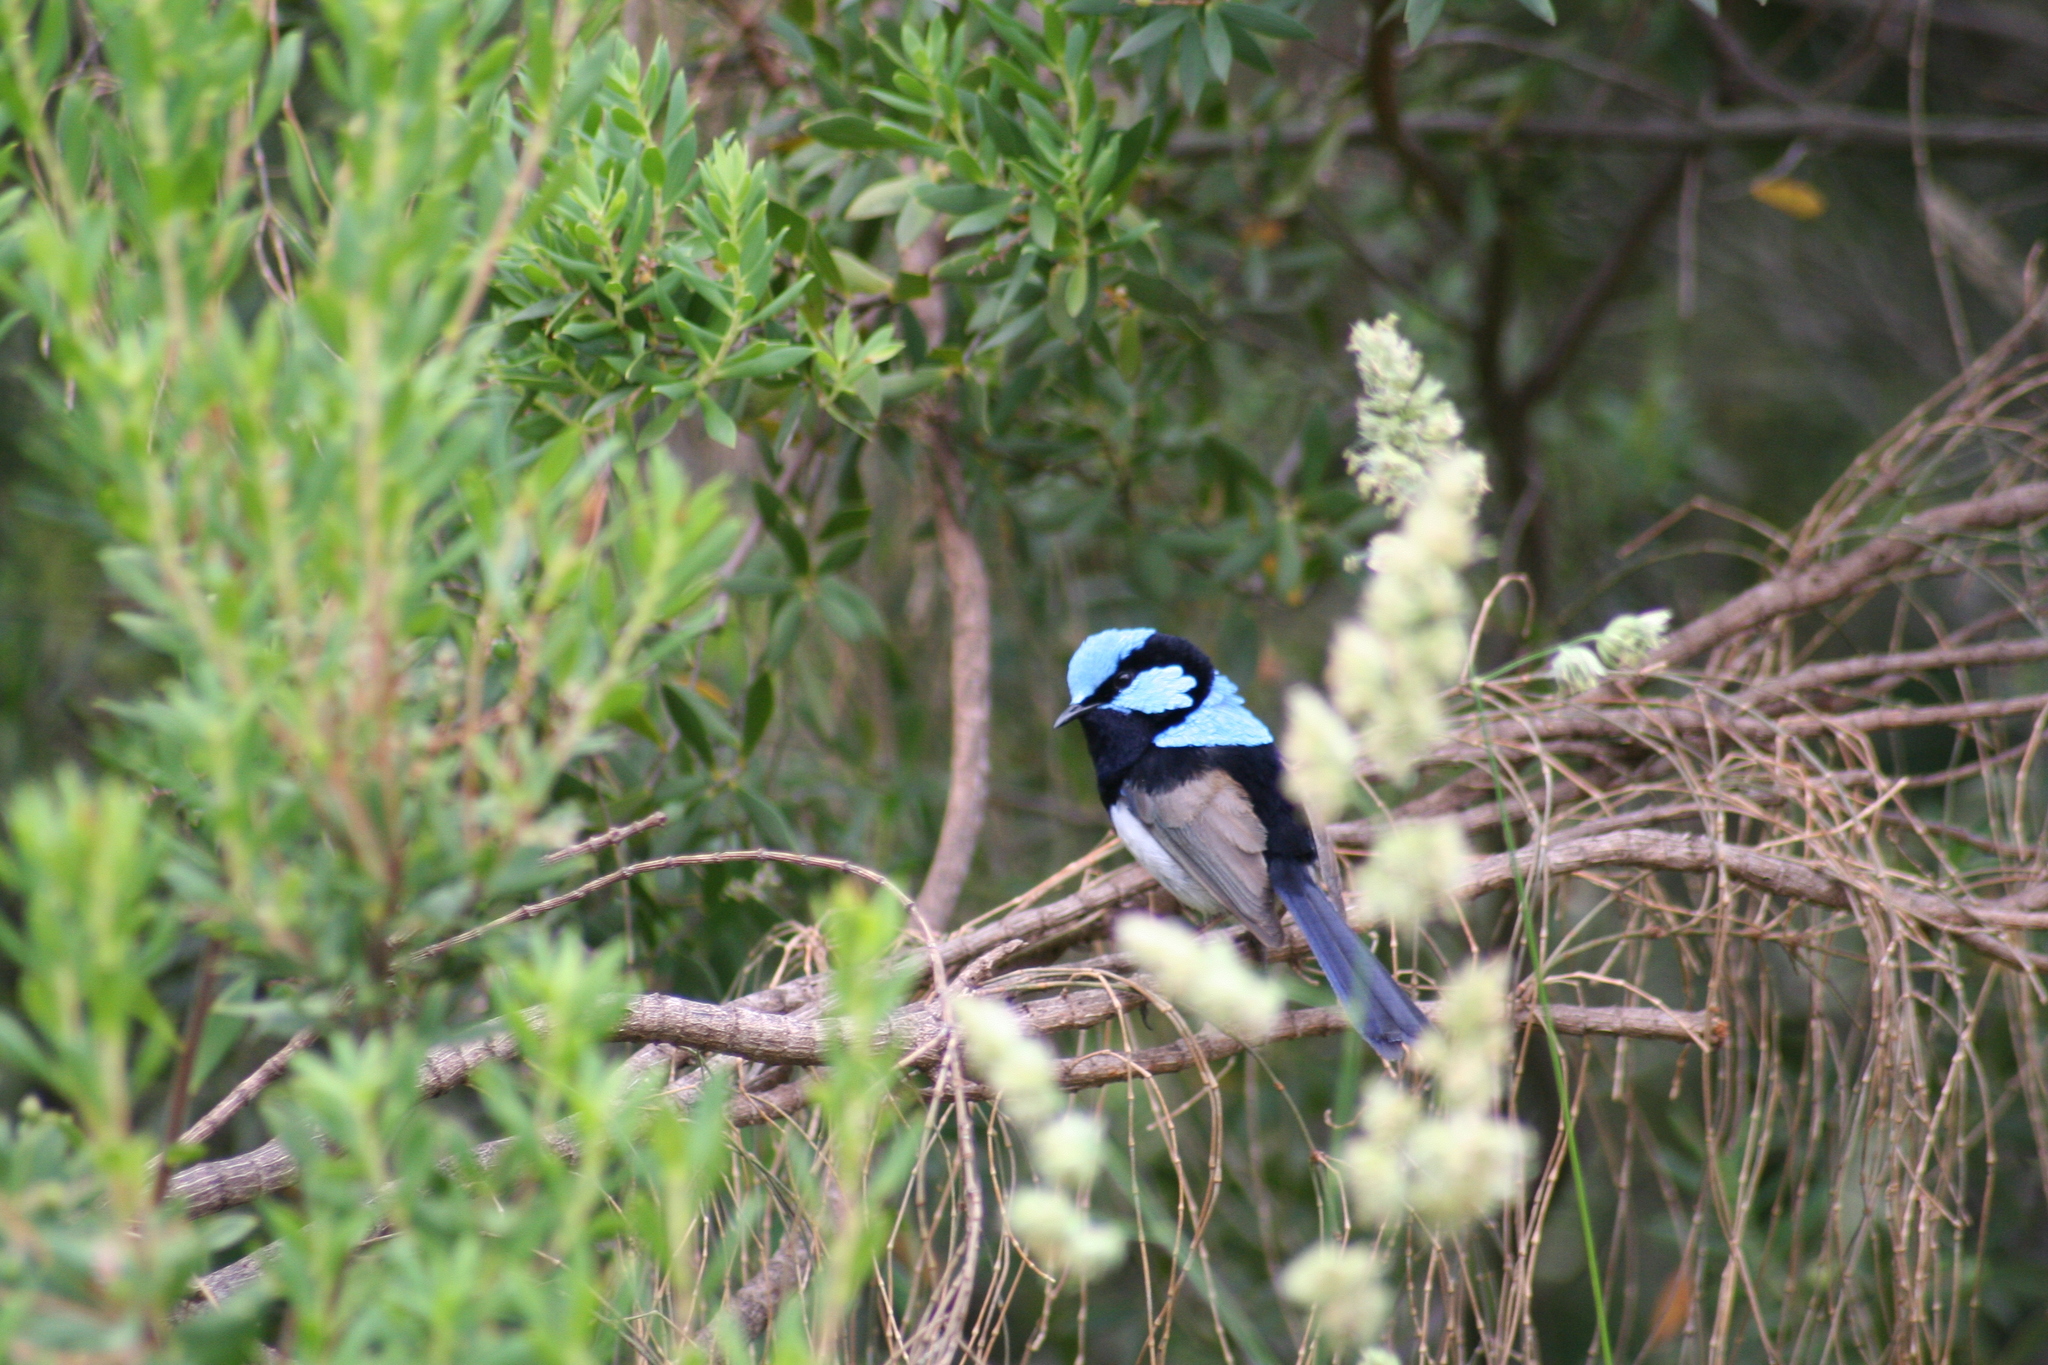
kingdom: Animalia
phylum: Chordata
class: Aves
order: Passeriformes
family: Maluridae
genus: Malurus
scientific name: Malurus cyaneus
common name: Superb fairywren
